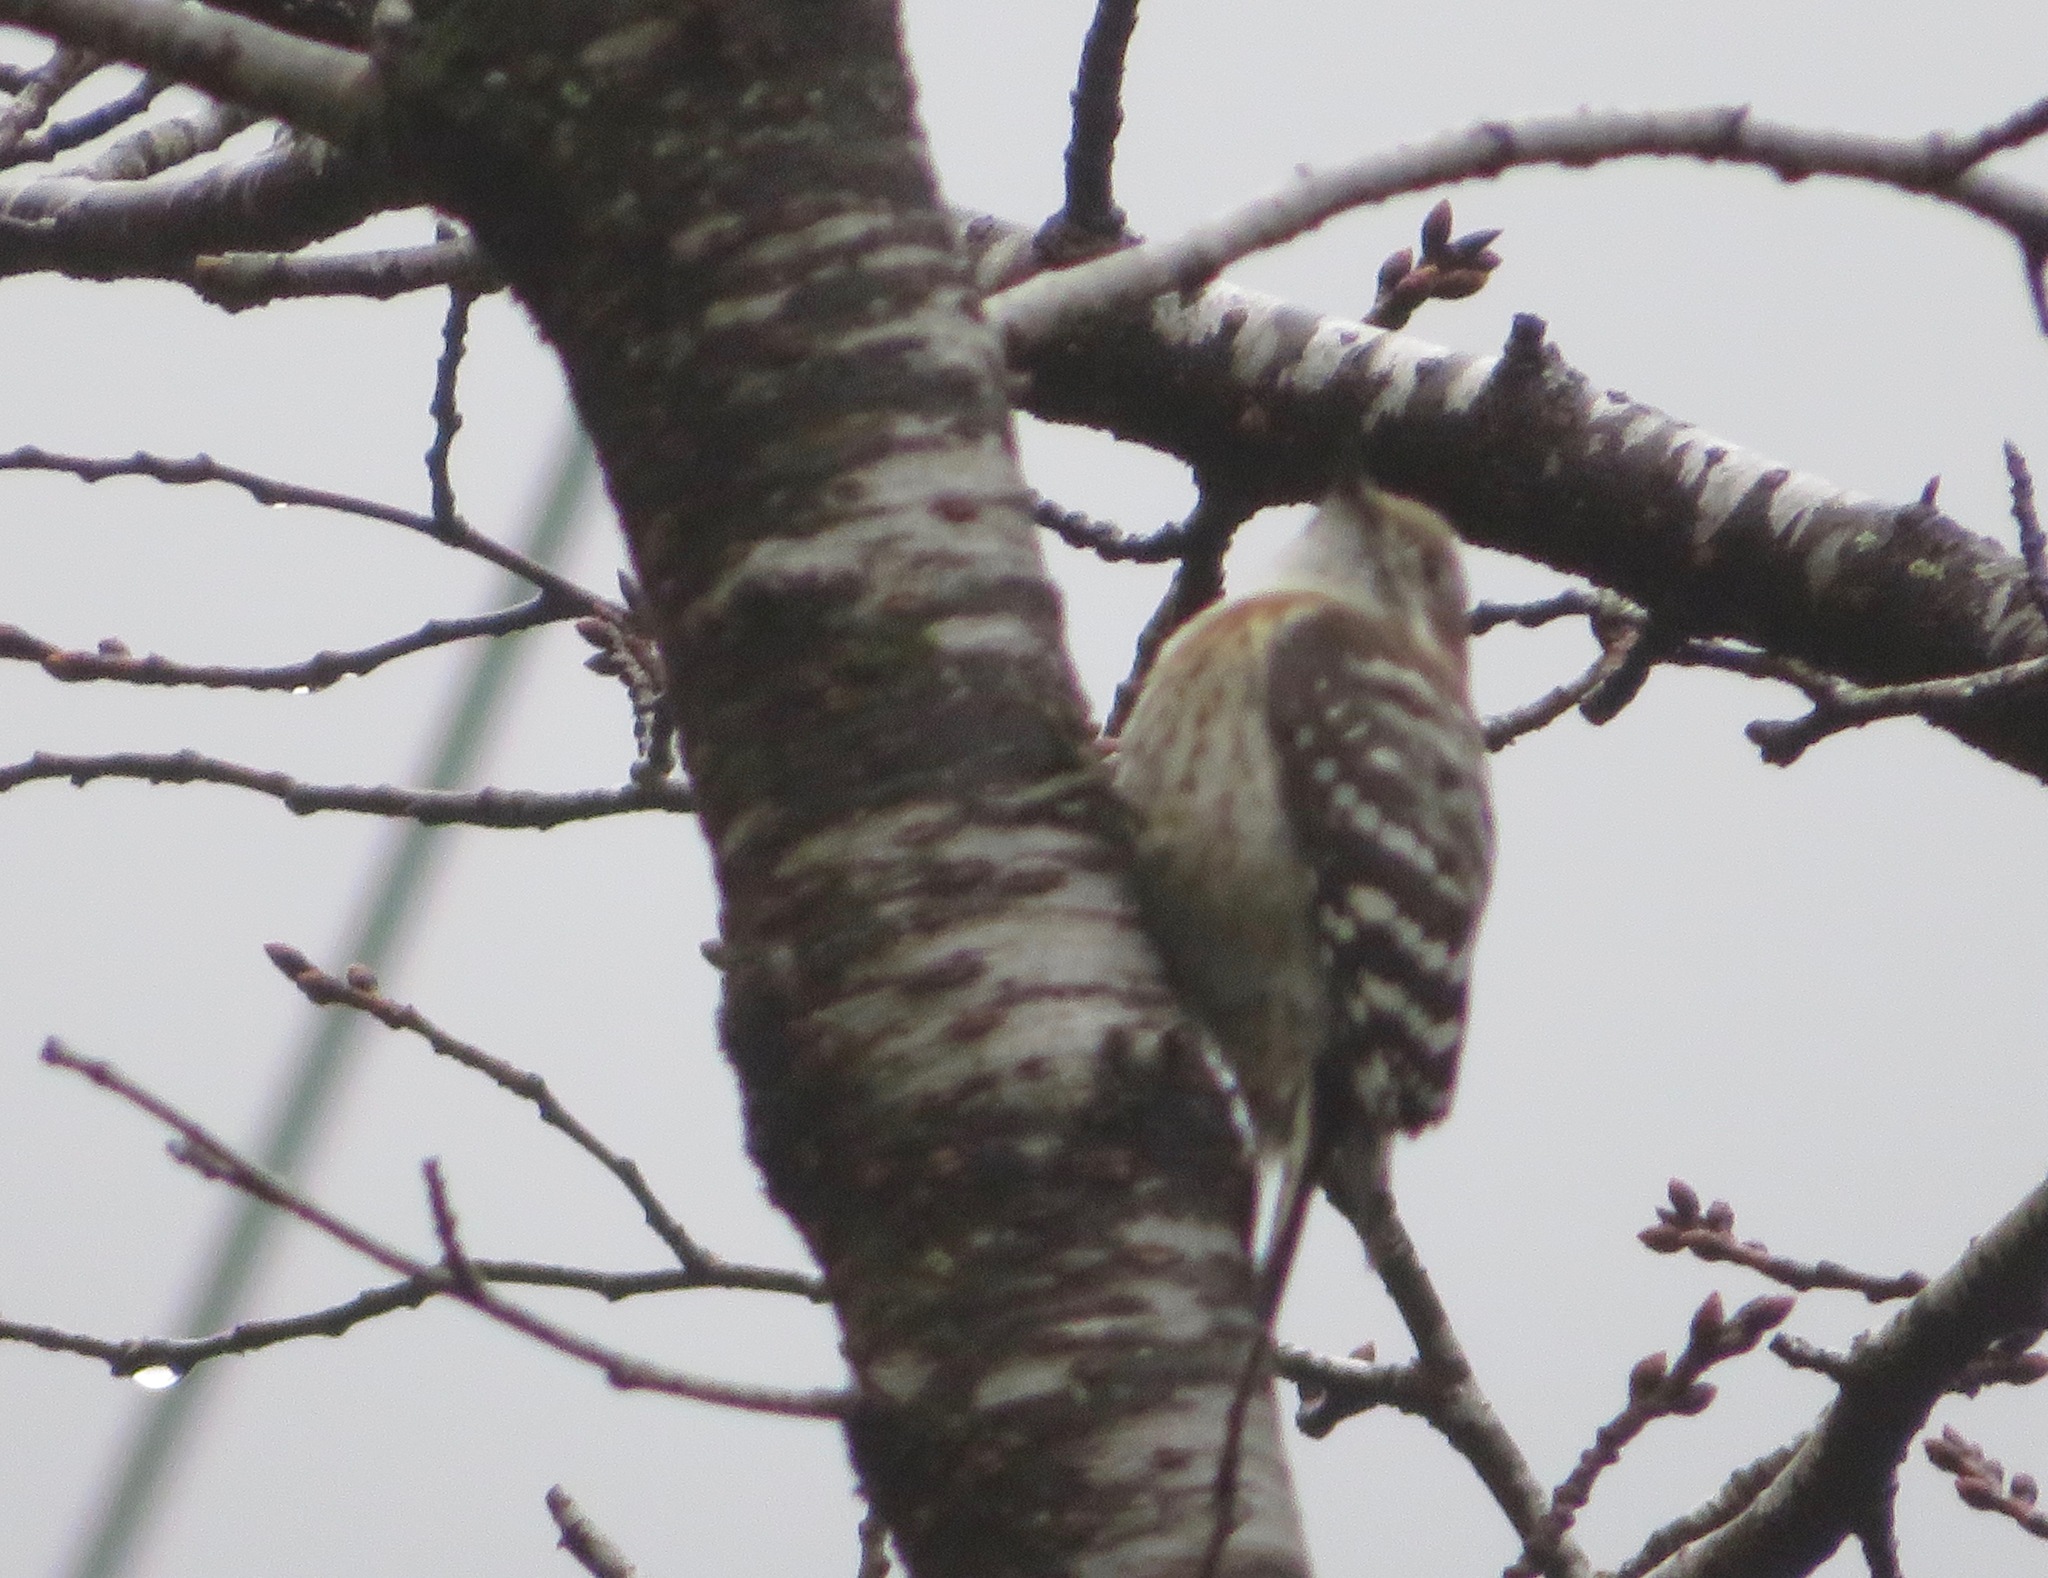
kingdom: Animalia
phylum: Chordata
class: Aves
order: Piciformes
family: Picidae
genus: Yungipicus
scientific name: Yungipicus kizuki
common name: Japanese pygmy woodpecker
